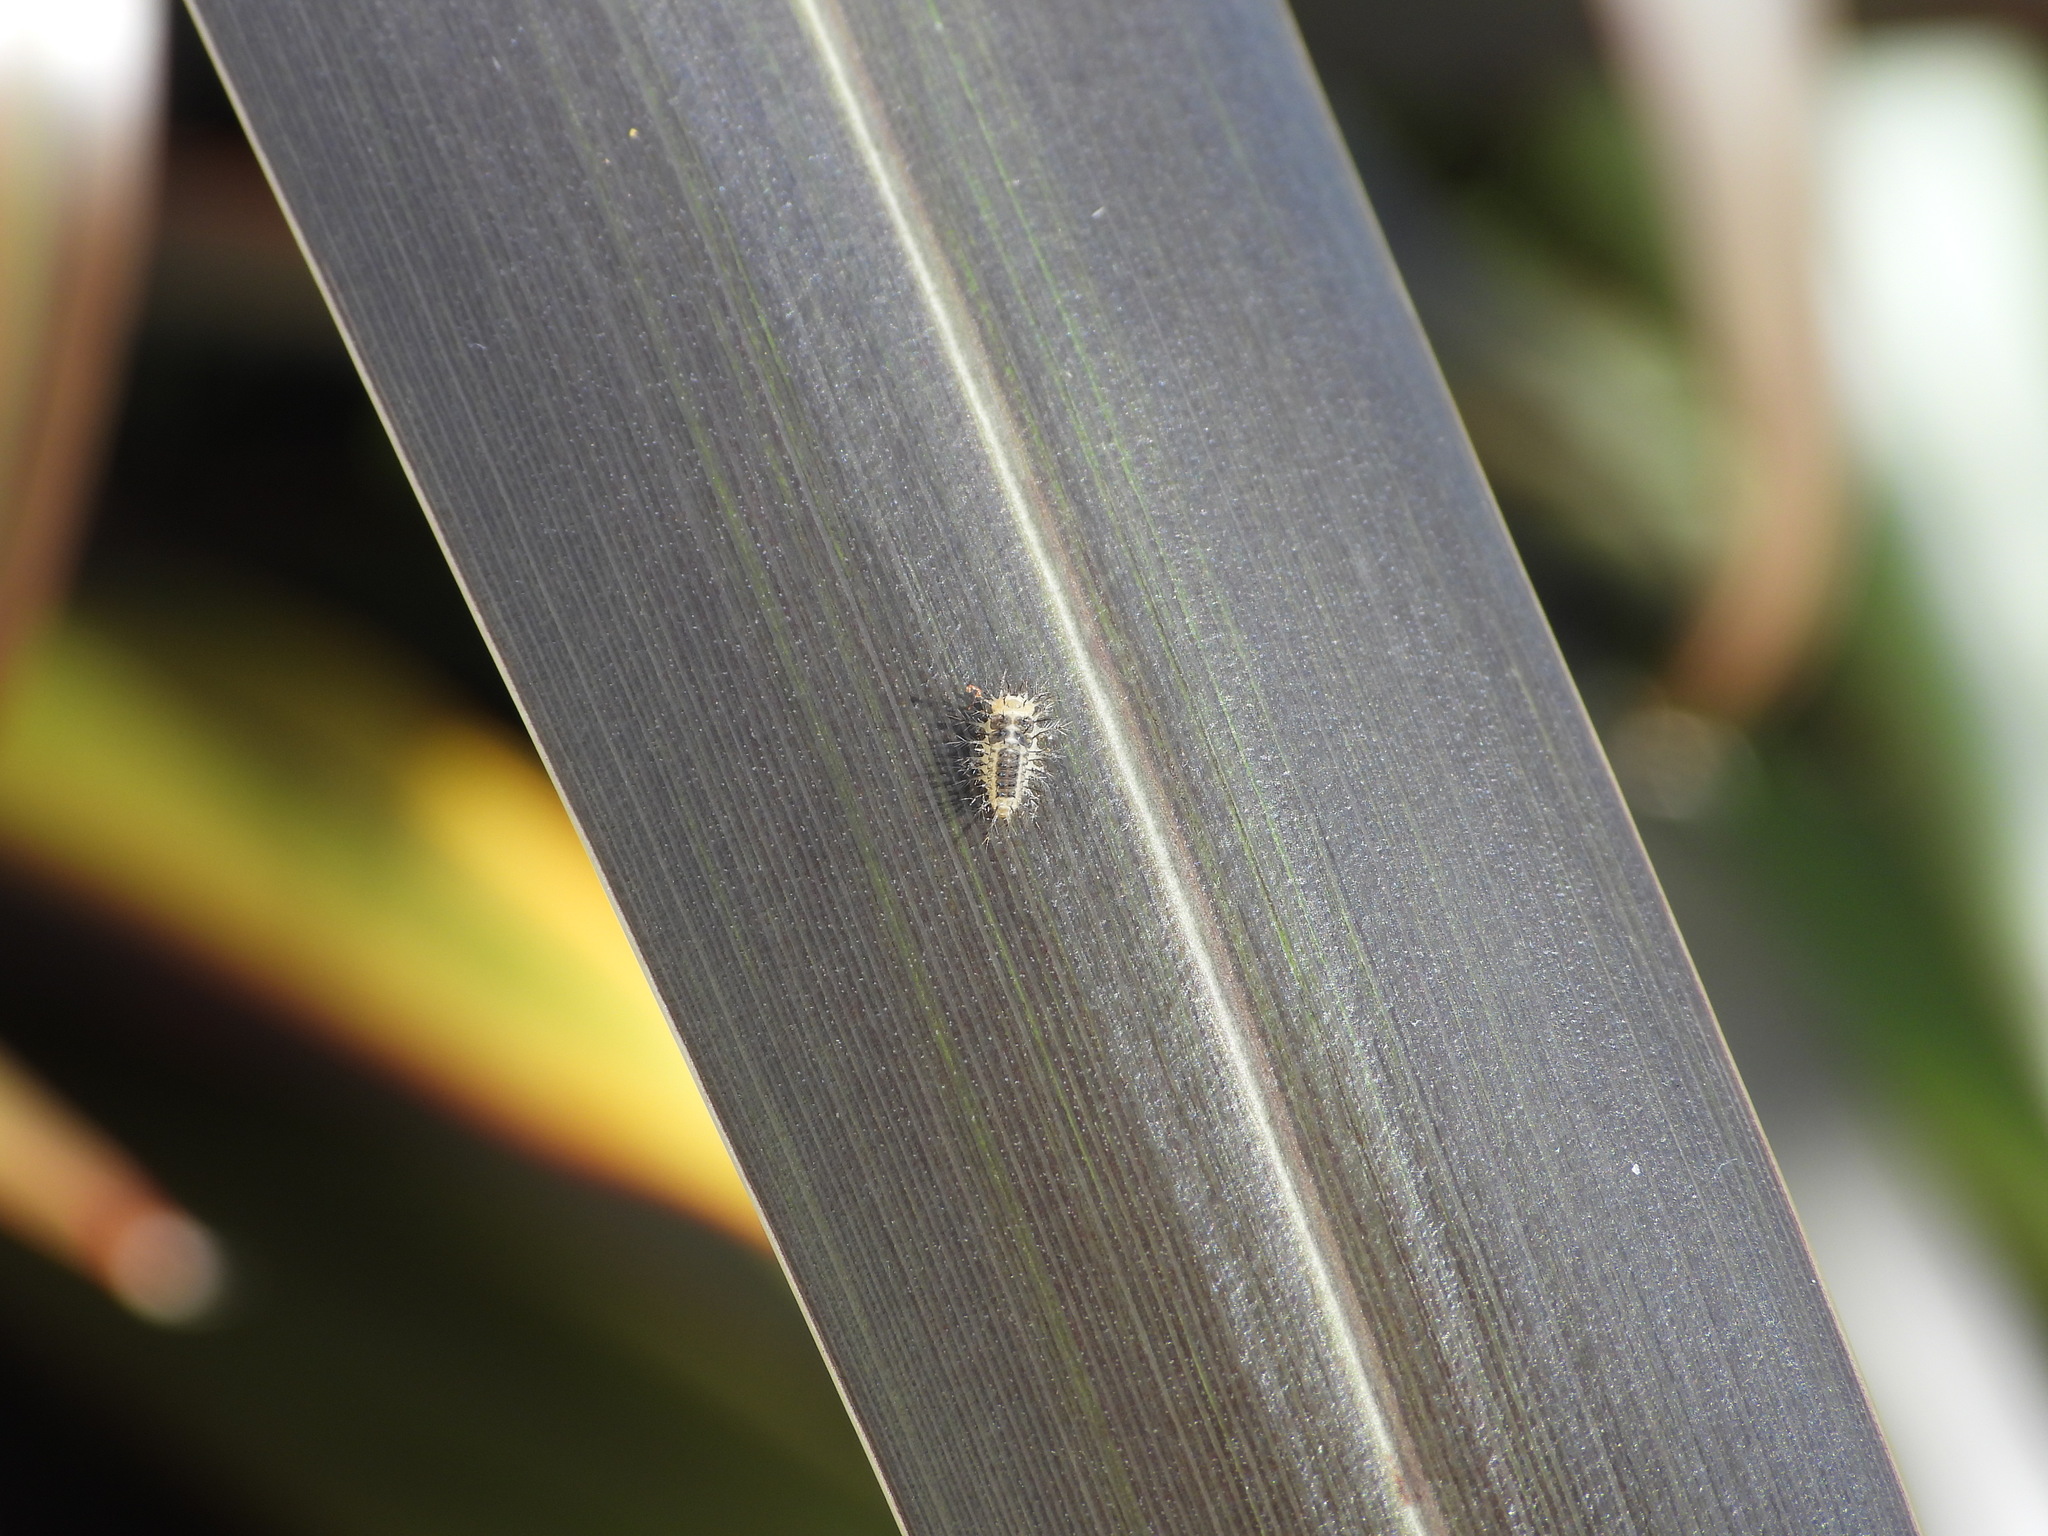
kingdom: Animalia
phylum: Arthropoda
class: Insecta
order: Coleoptera
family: Coccinellidae
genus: Halmus
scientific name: Halmus chalybeus
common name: Steel blue ladybird beetle
